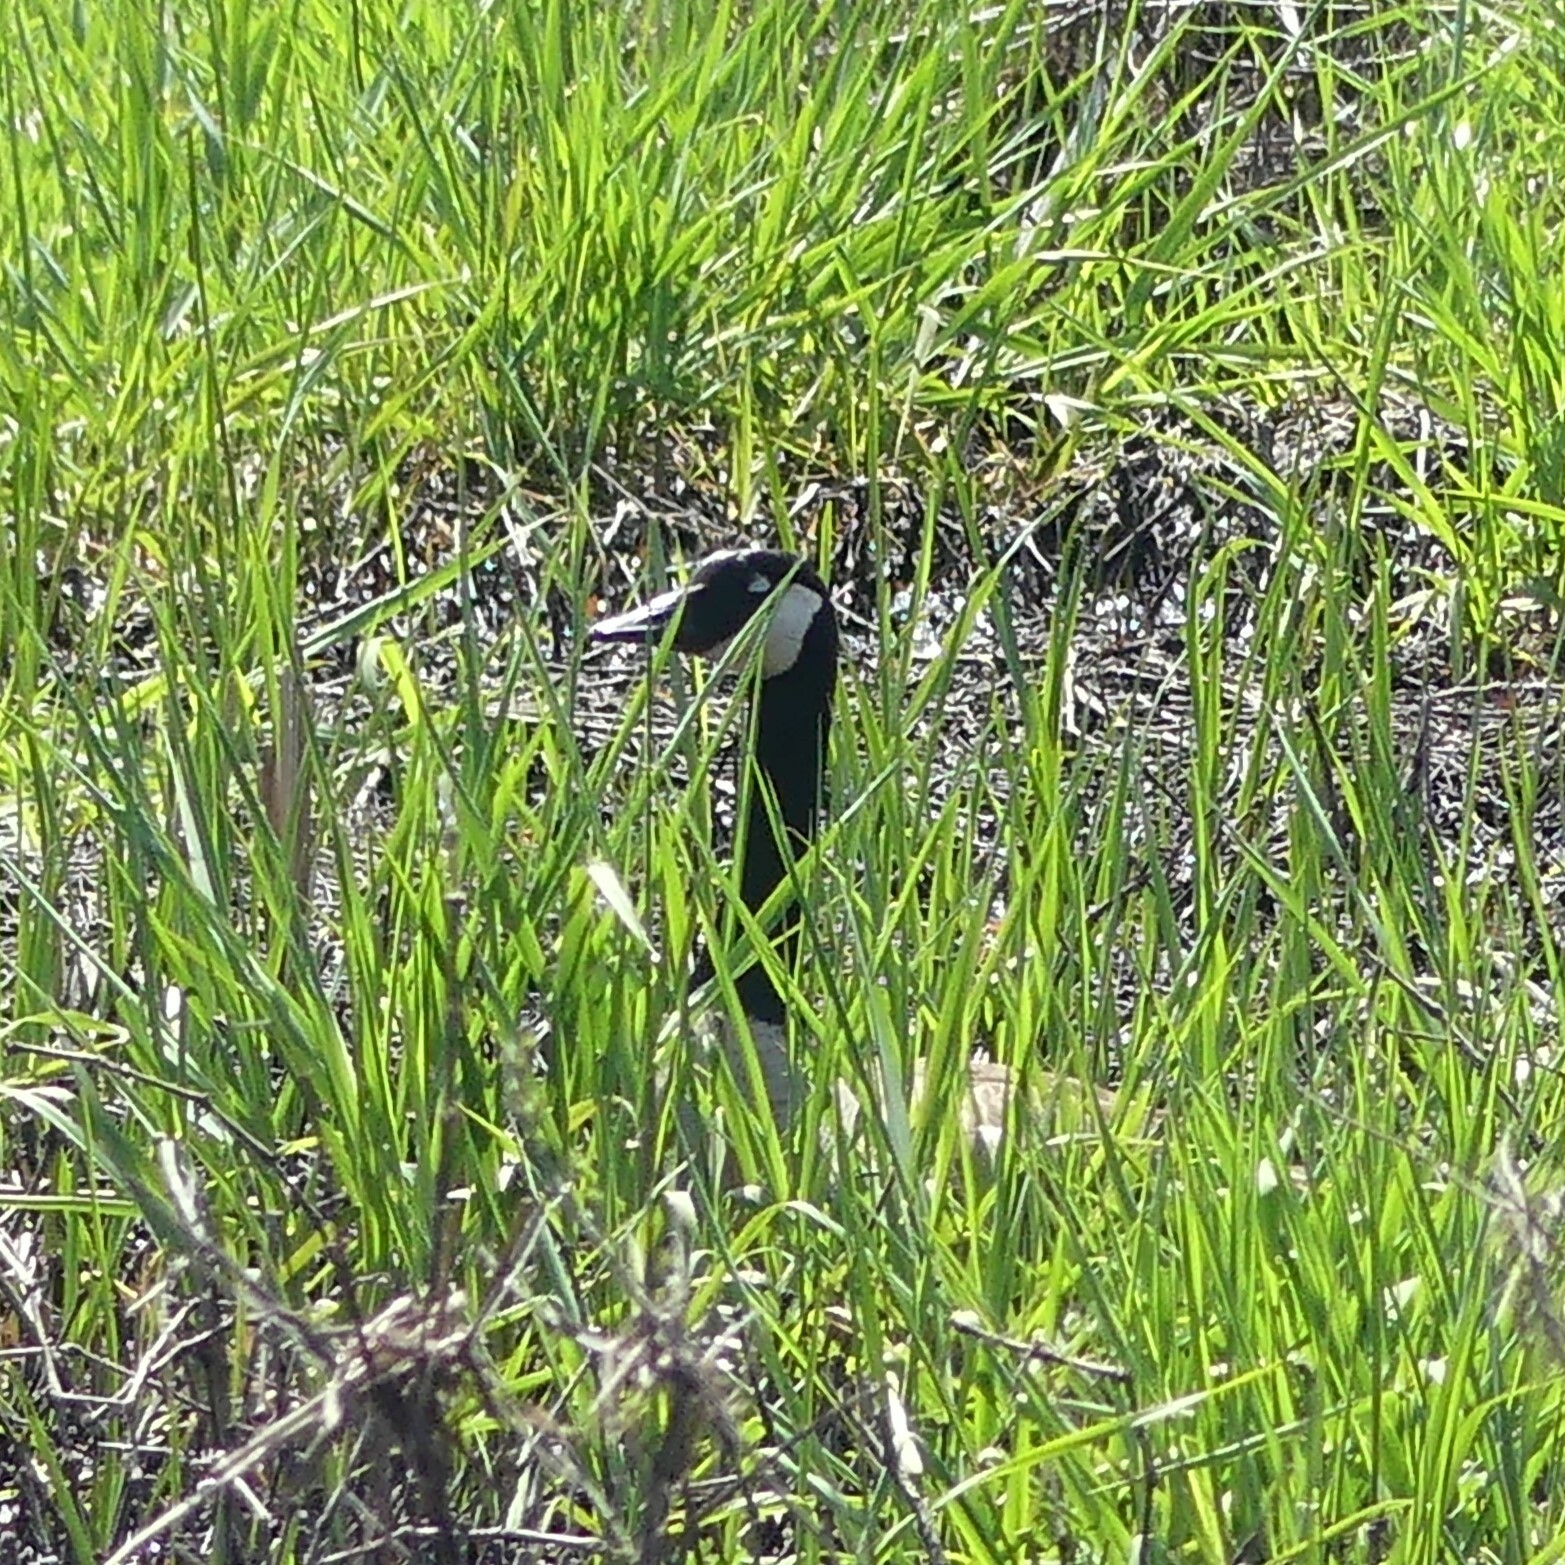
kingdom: Animalia
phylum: Chordata
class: Aves
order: Anseriformes
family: Anatidae
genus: Branta
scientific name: Branta canadensis
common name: Canada goose
